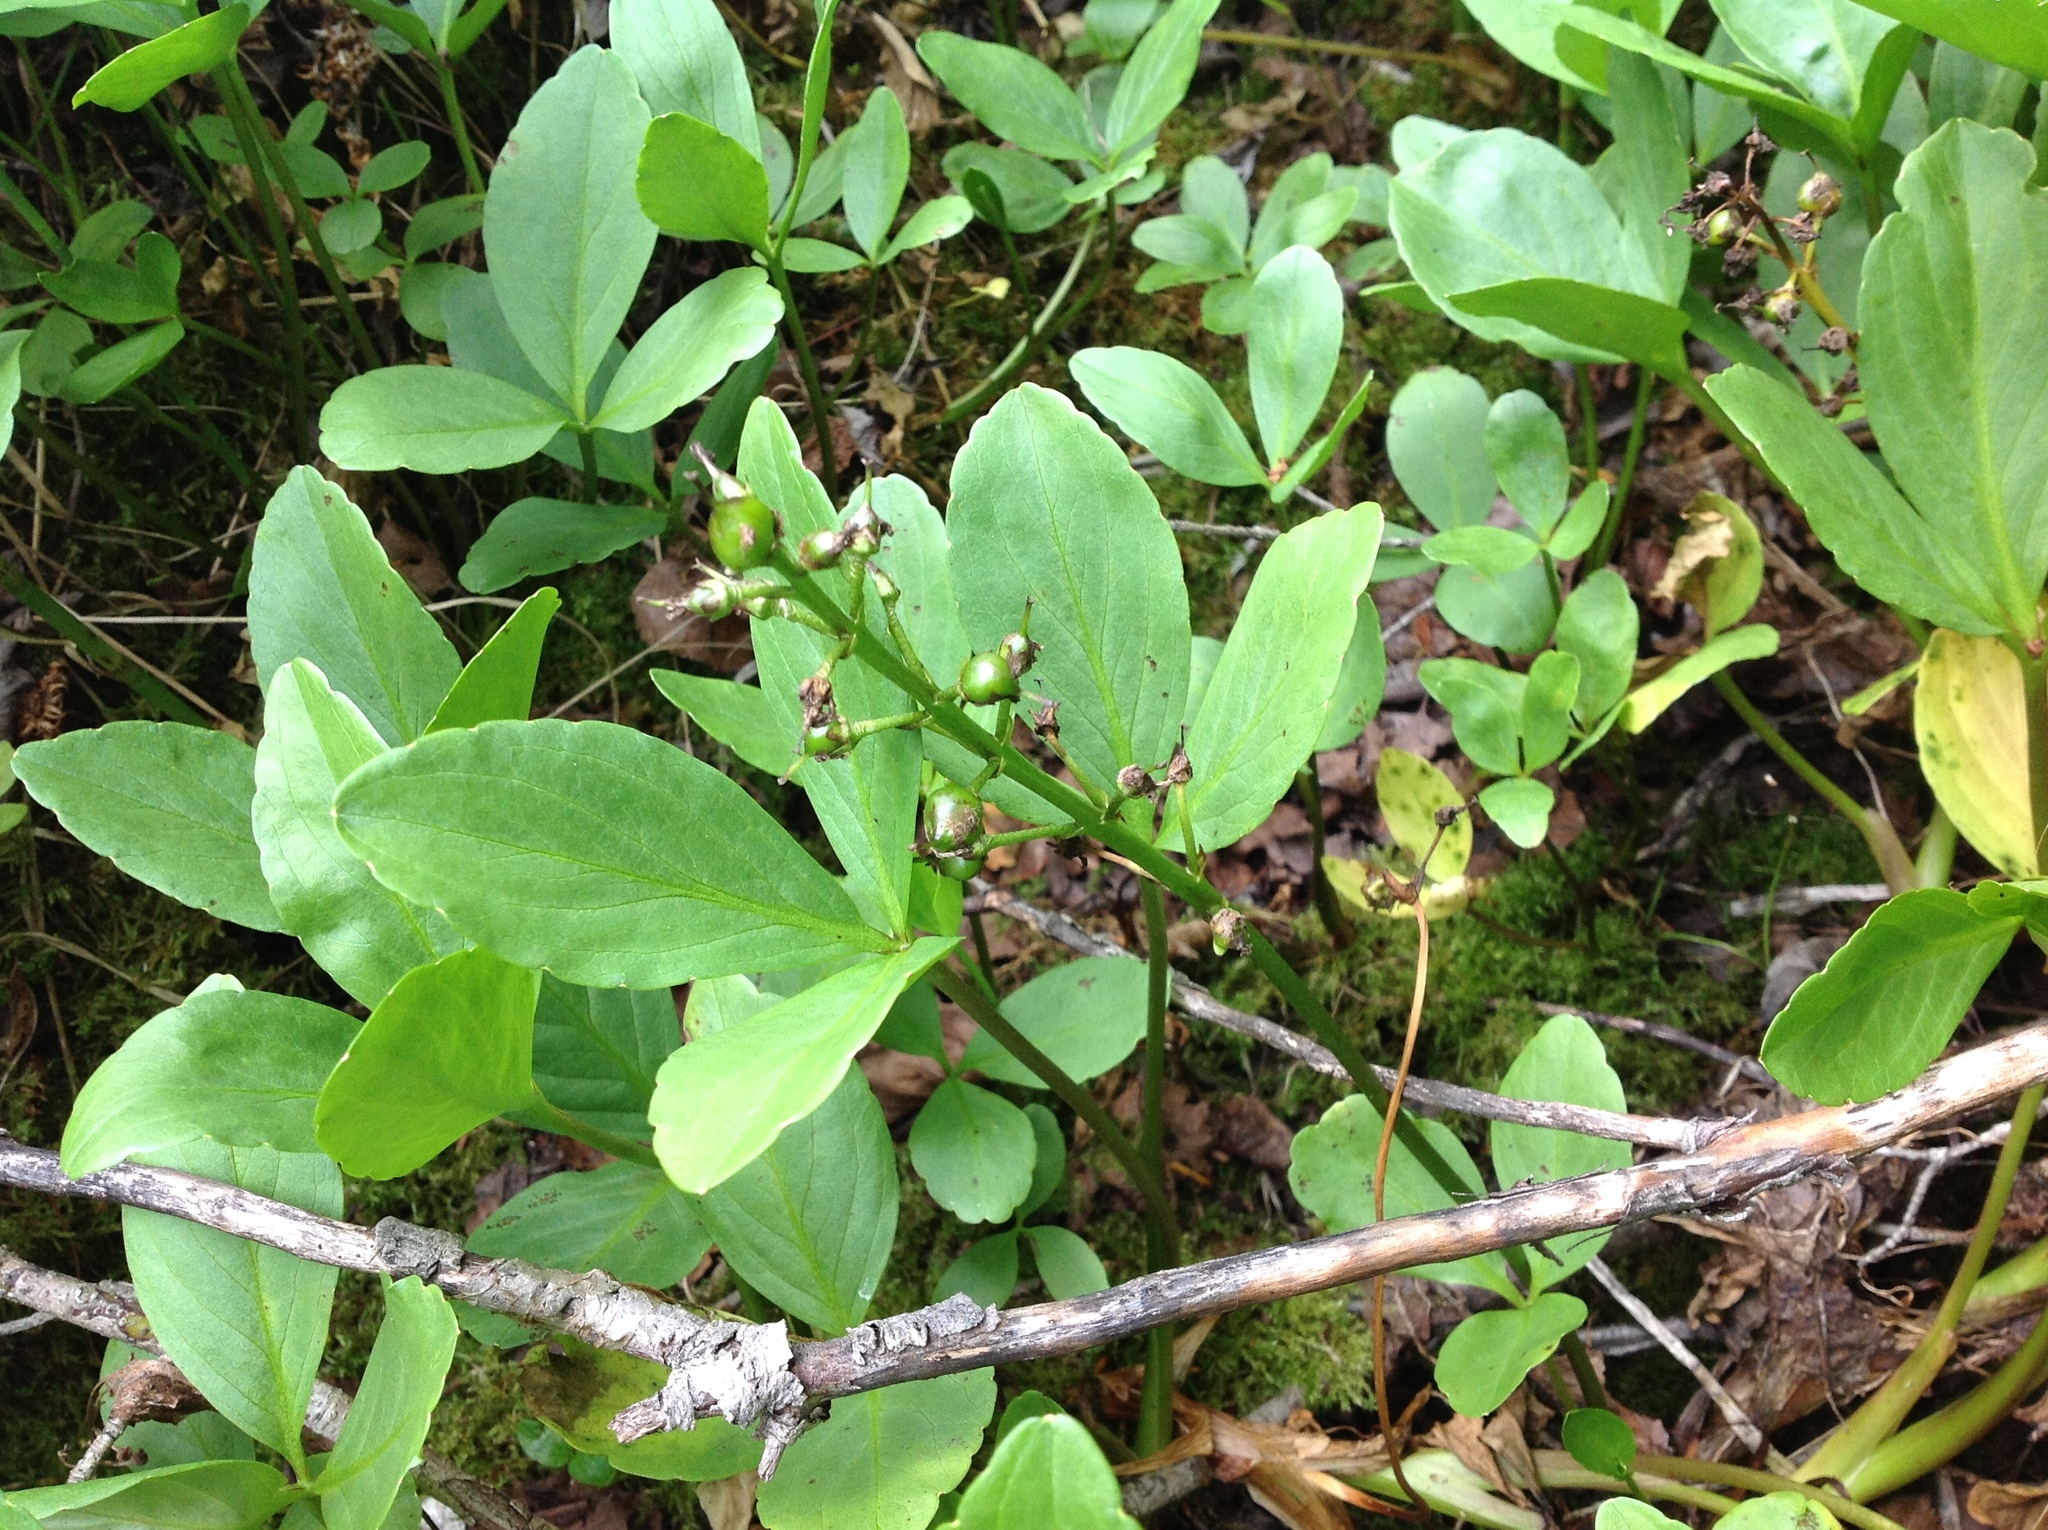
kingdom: Plantae
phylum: Tracheophyta
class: Magnoliopsida
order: Asterales
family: Menyanthaceae
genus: Menyanthes
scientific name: Menyanthes trifoliata
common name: Bogbean
